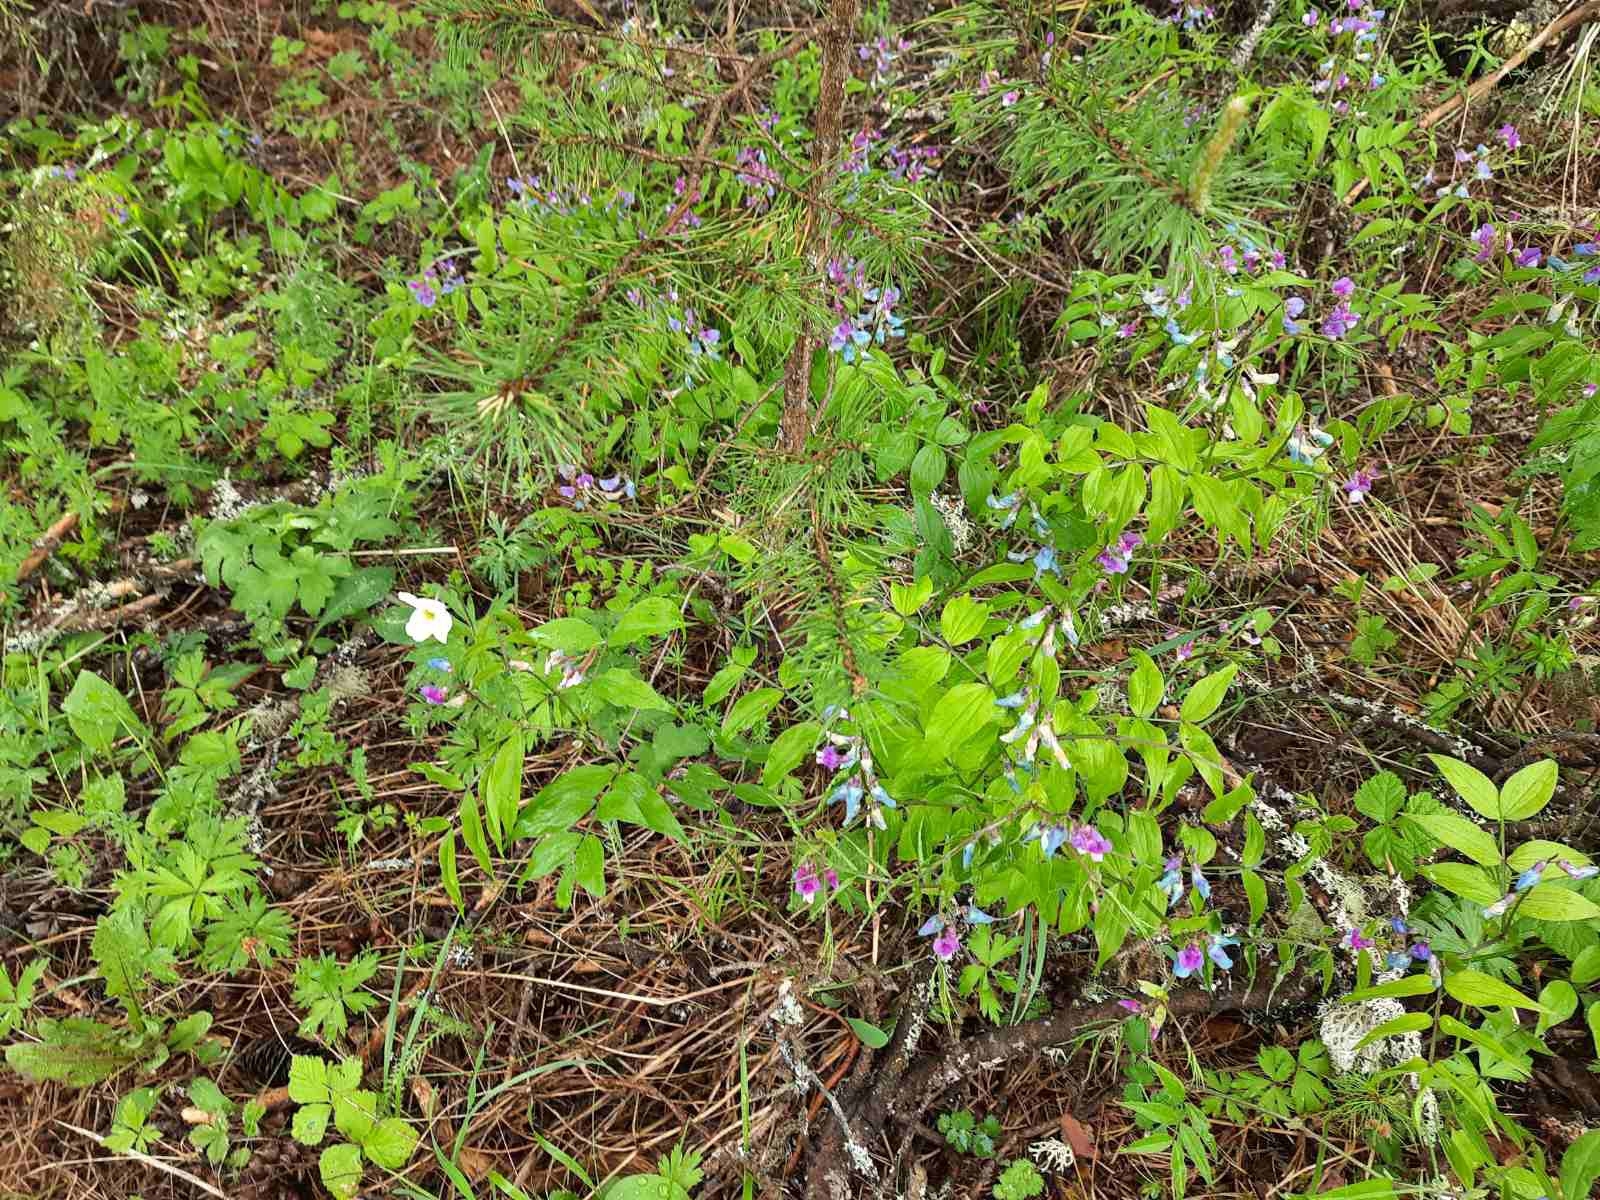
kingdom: Plantae
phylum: Tracheophyta
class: Magnoliopsida
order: Ranunculales
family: Ranunculaceae
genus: Anemone
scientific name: Anemone sylvestris
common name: Snowdrop anemone
